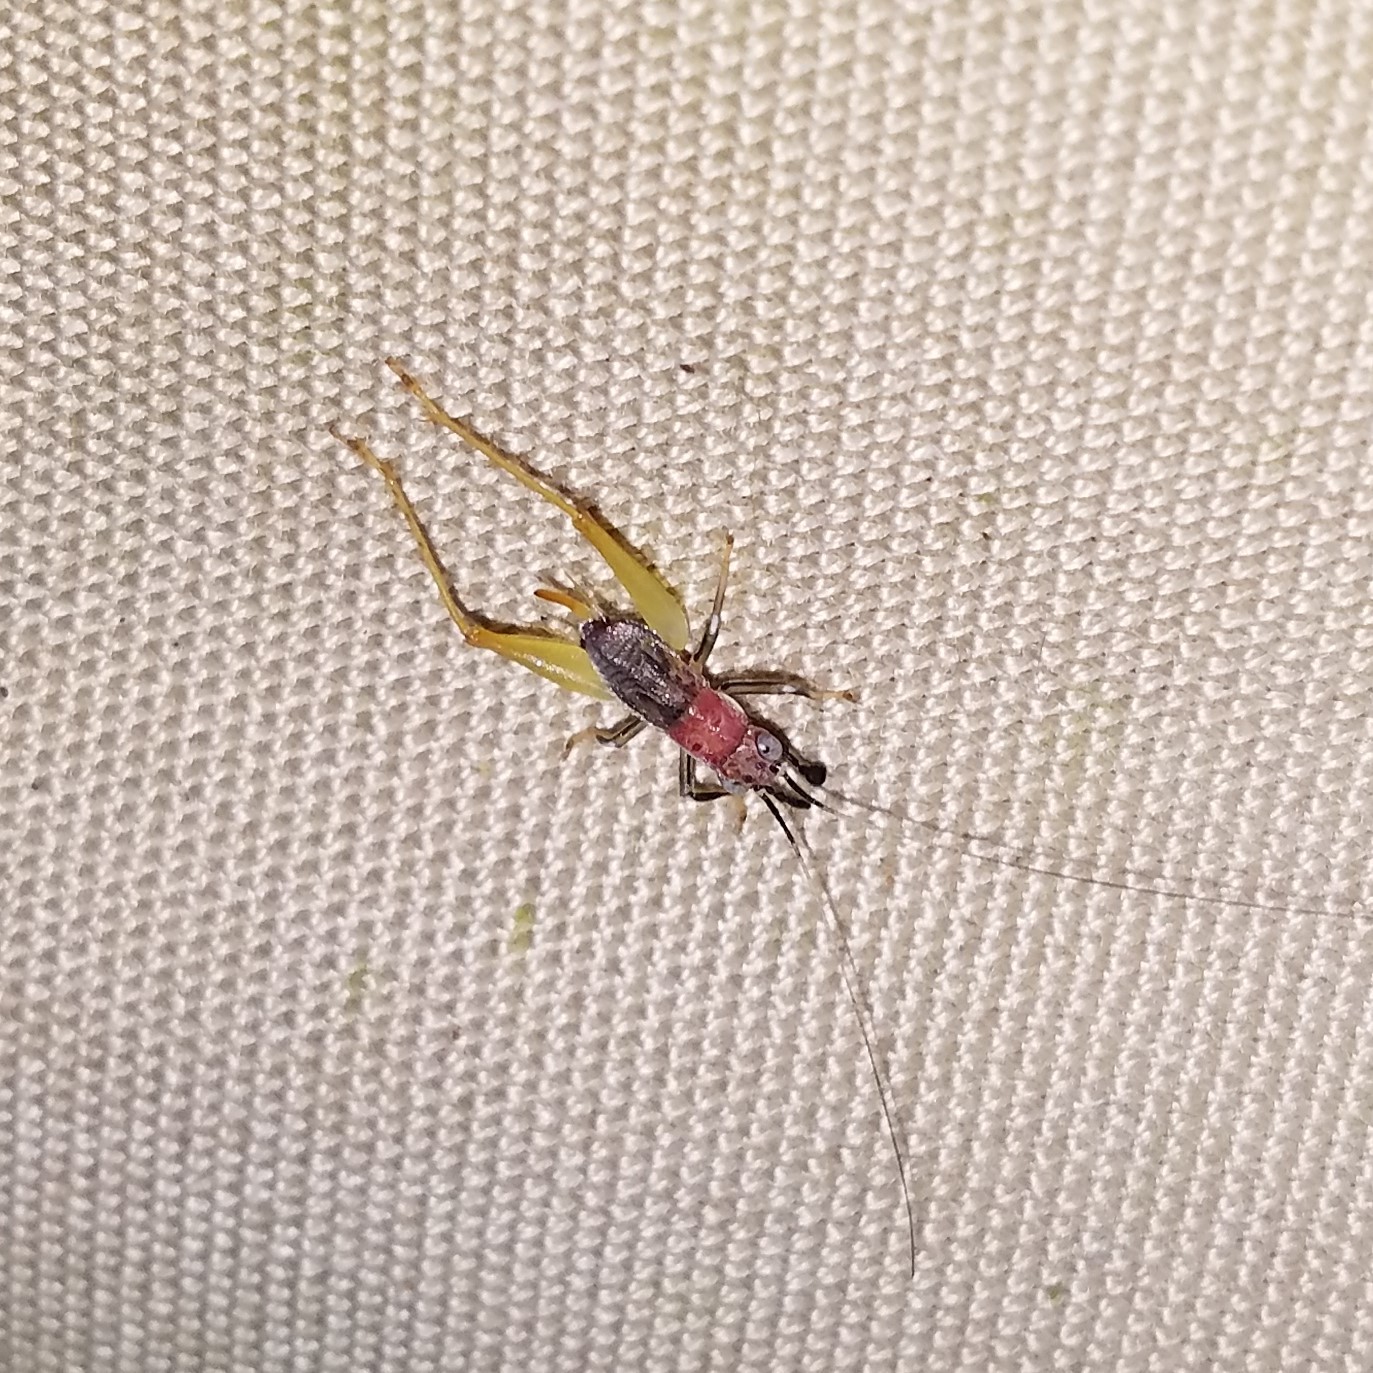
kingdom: Animalia
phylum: Arthropoda
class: Insecta
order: Orthoptera
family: Trigonidiidae
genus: Phyllopalpus
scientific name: Phyllopalpus pulchellus
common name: Handsome trig
